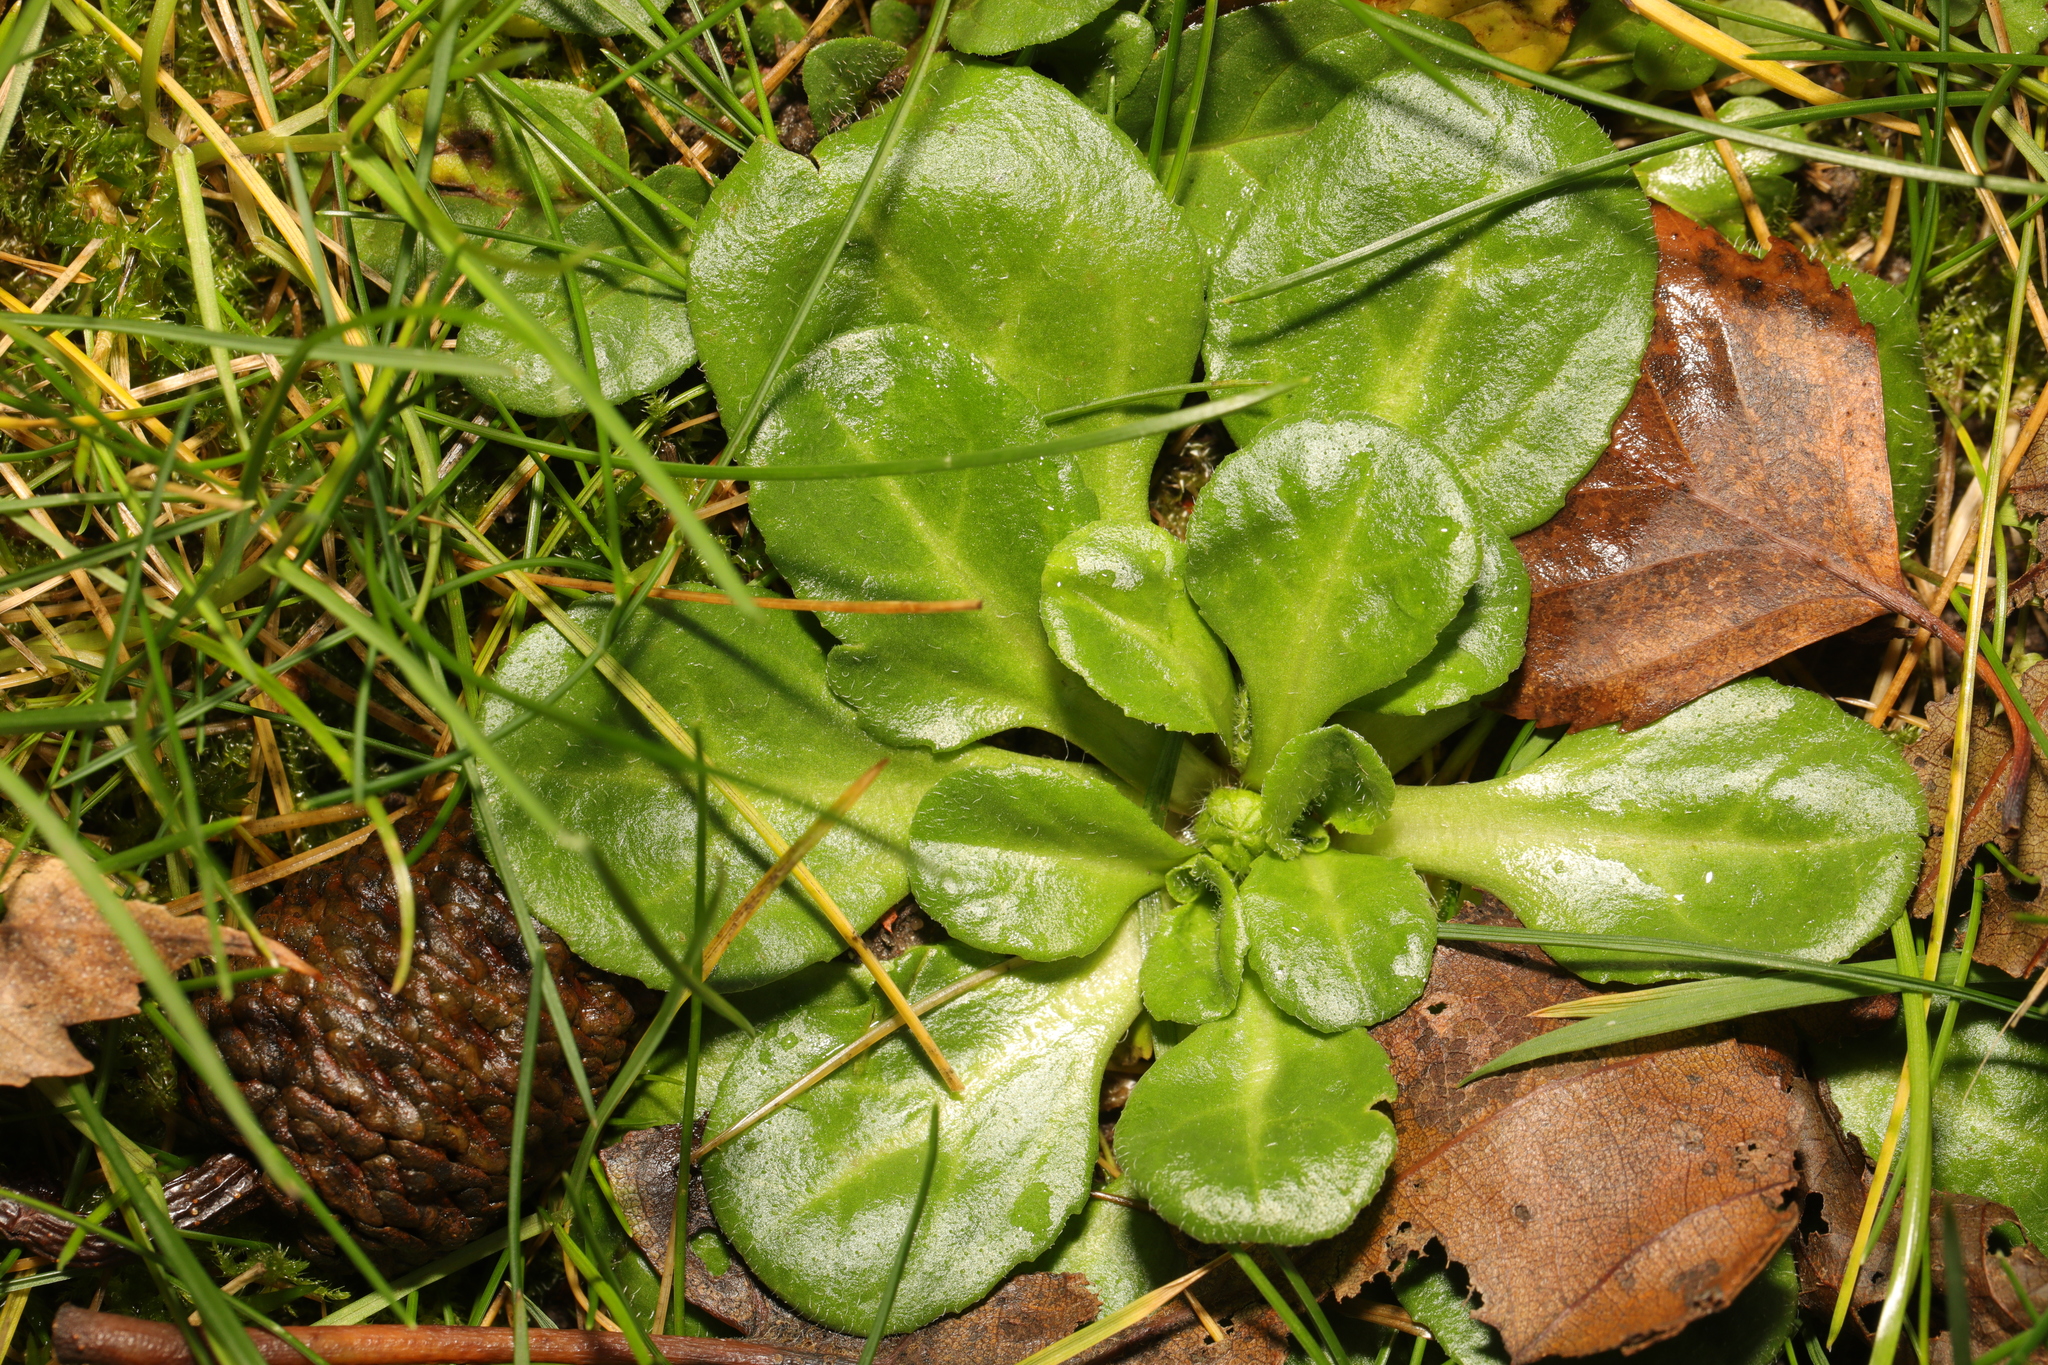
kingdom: Plantae
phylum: Tracheophyta
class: Magnoliopsida
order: Asterales
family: Asteraceae
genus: Bellis
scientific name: Bellis perennis
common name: Lawndaisy
